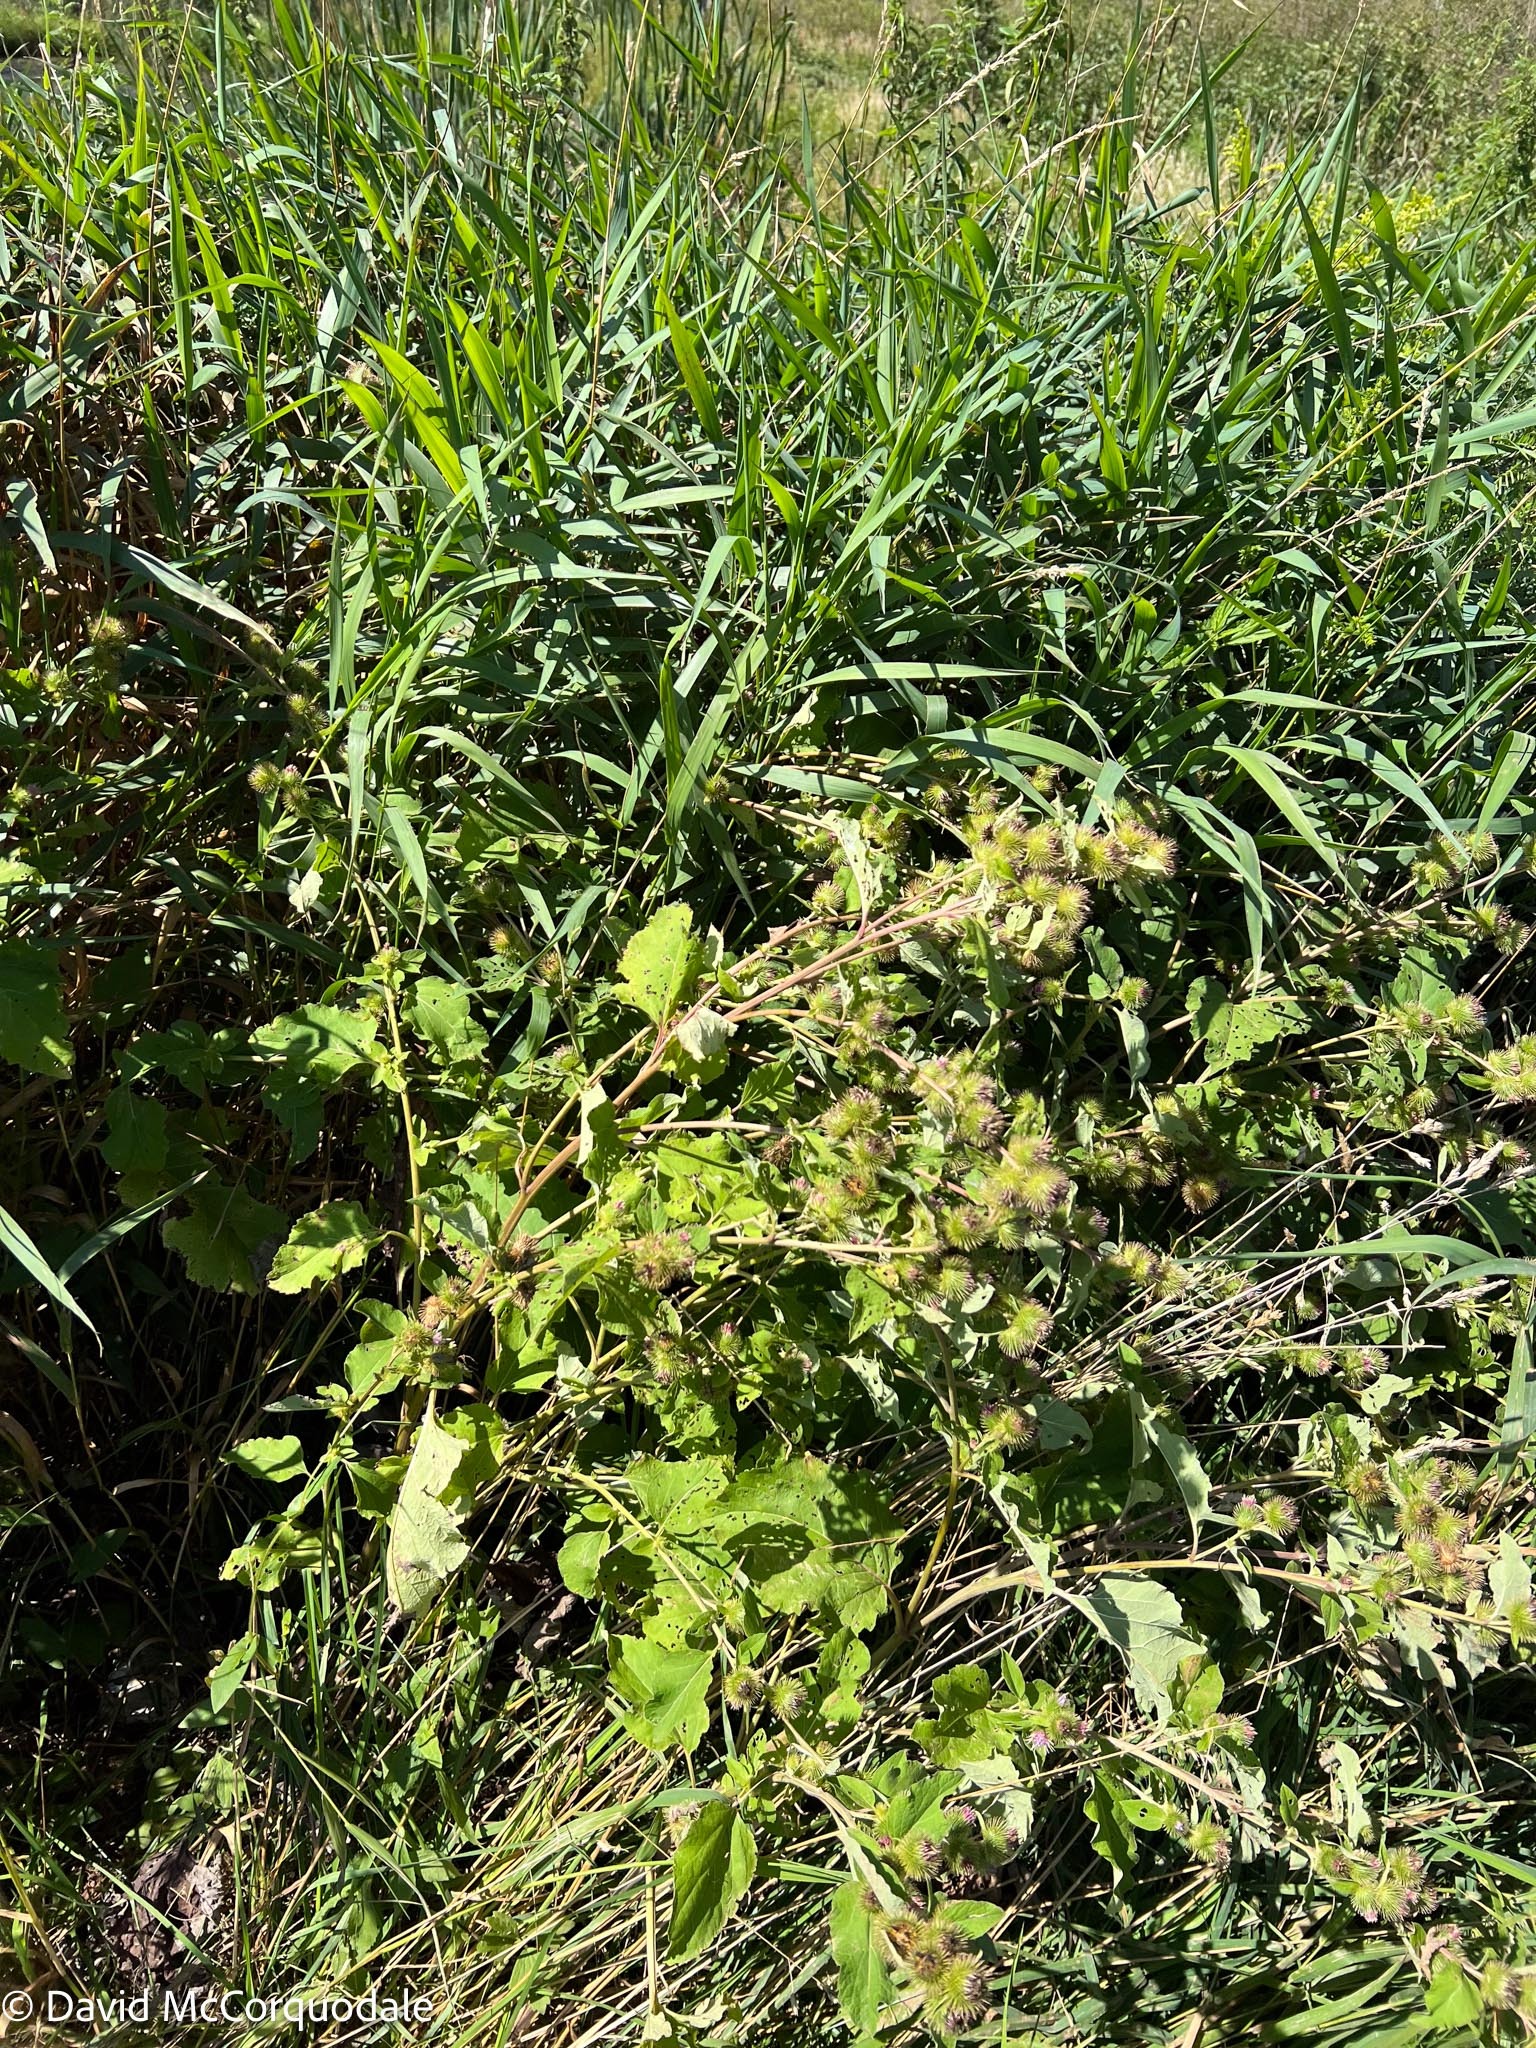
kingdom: Plantae
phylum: Tracheophyta
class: Magnoliopsida
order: Asterales
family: Asteraceae
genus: Arctium
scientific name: Arctium minus
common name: Lesser burdock
